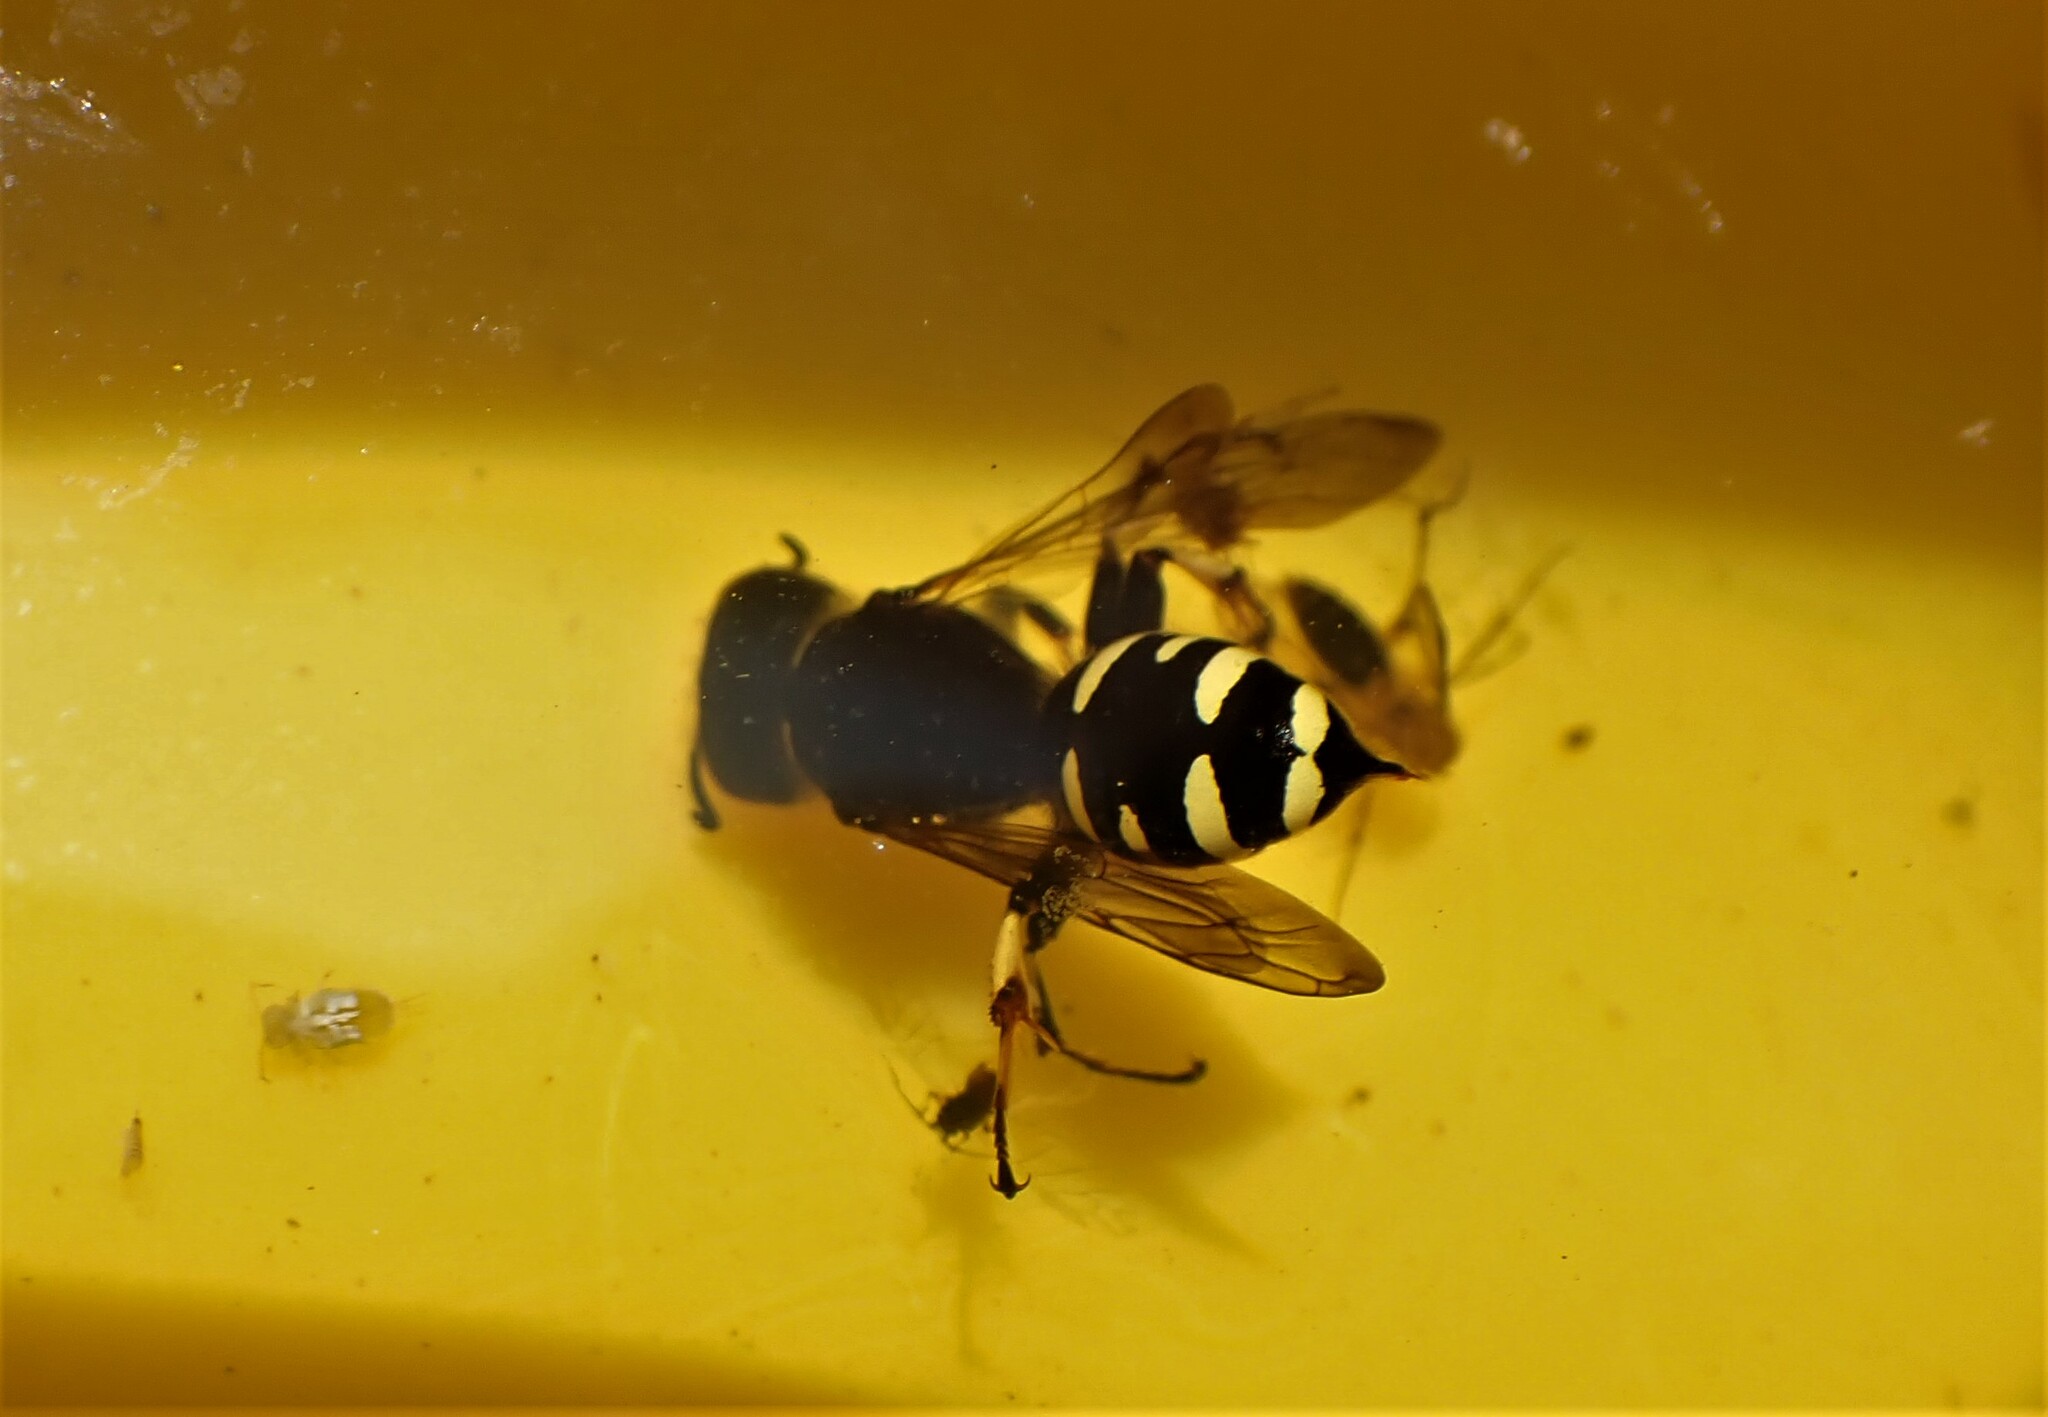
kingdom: Animalia
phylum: Arthropoda
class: Insecta
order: Hymenoptera
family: Crabronidae
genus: Ectemnius
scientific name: Ectemnius continuus
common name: Common ectemnius
